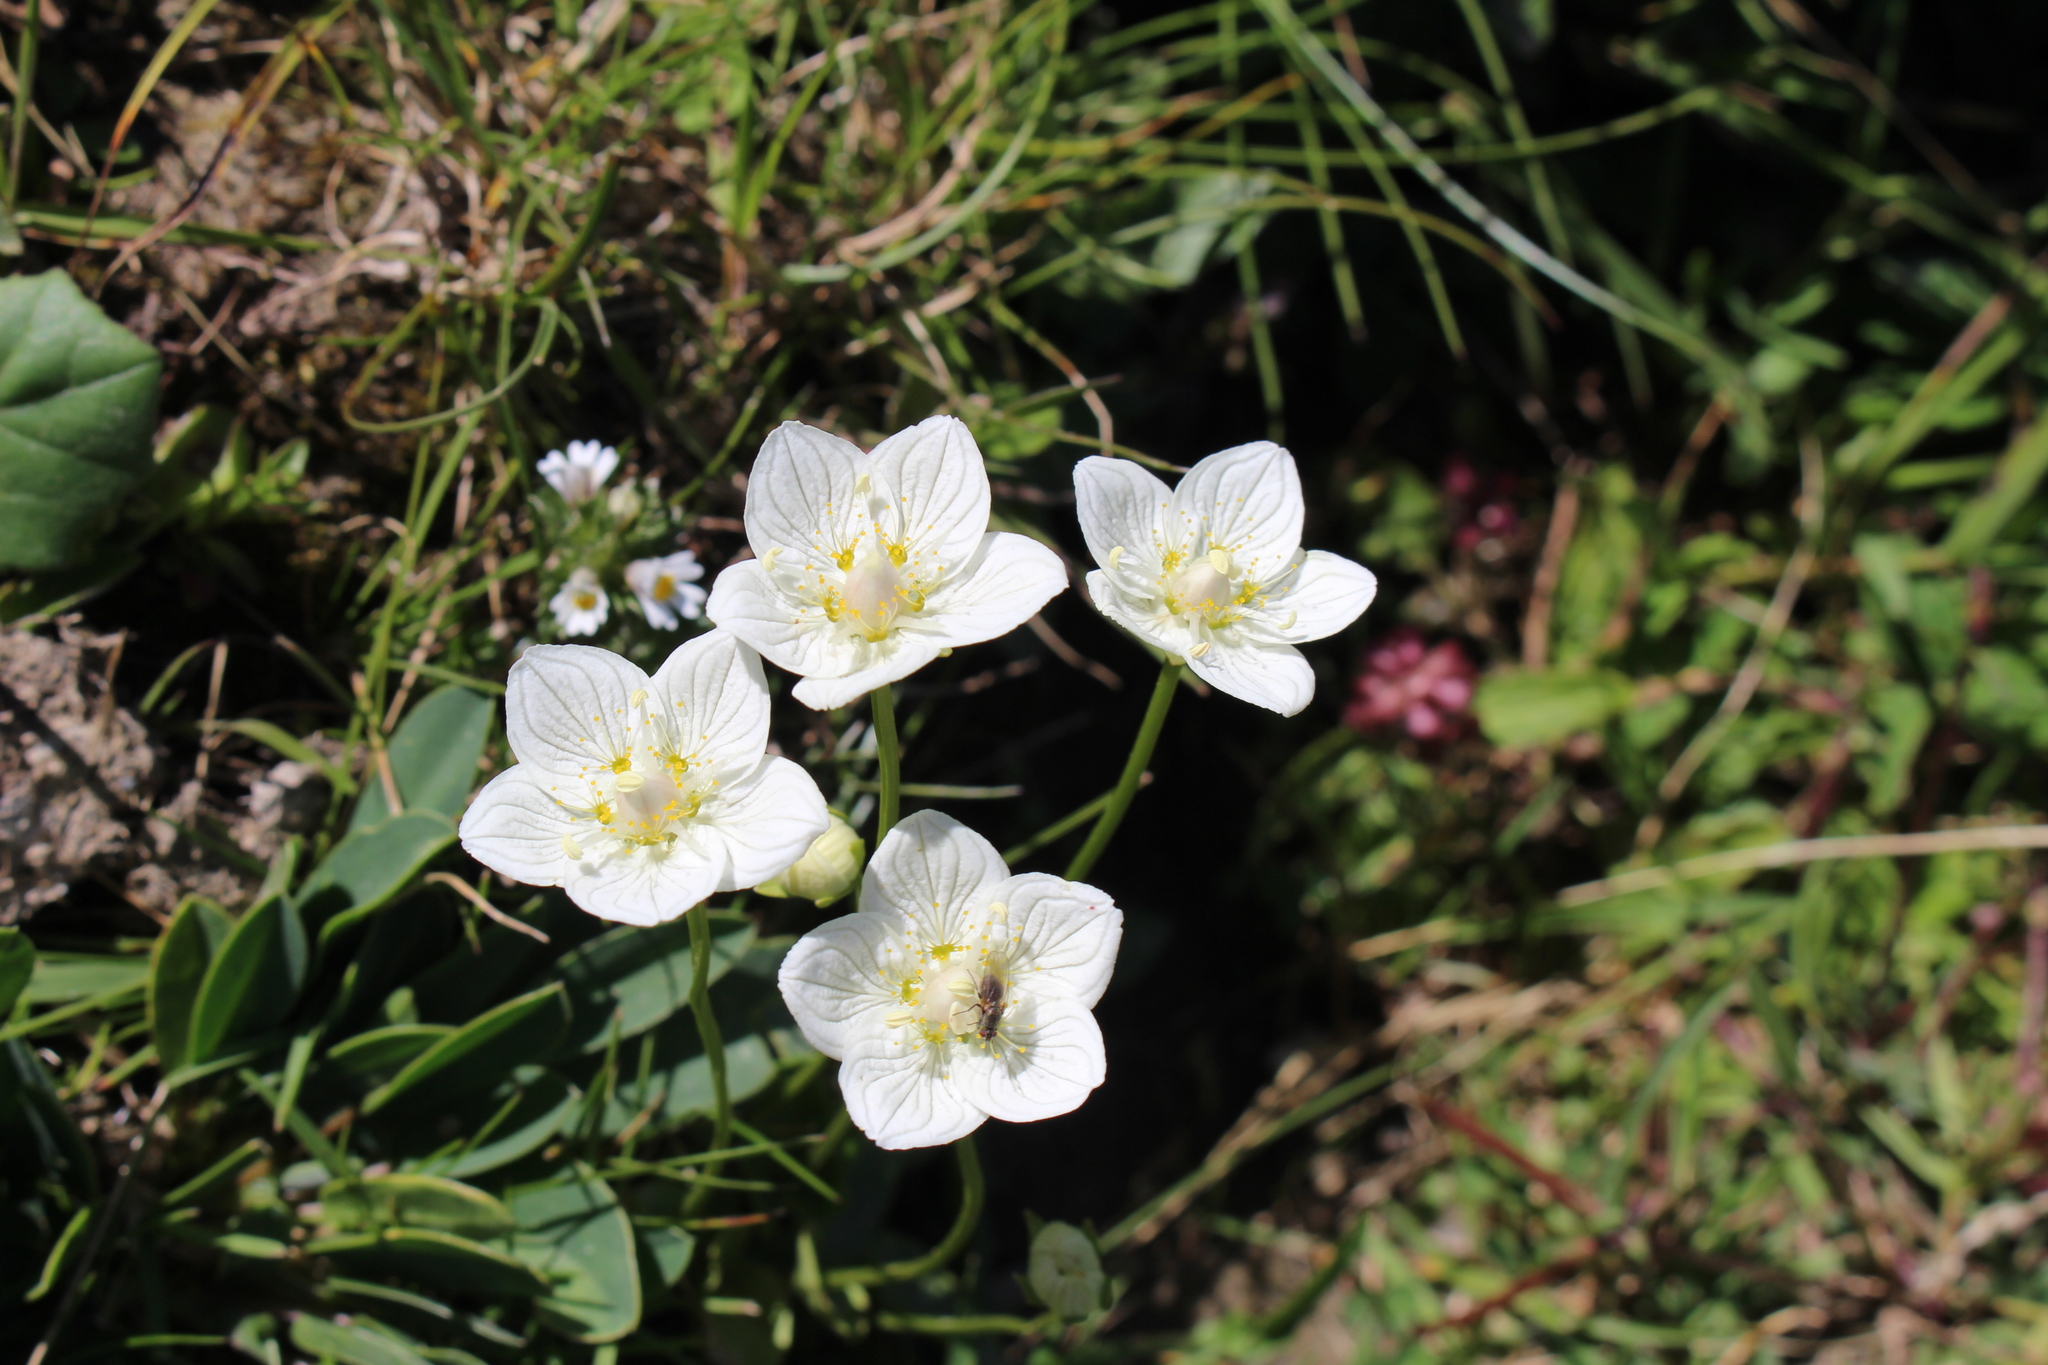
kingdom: Plantae
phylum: Tracheophyta
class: Magnoliopsida
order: Celastrales
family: Parnassiaceae
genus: Parnassia
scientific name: Parnassia palustris
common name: Grass-of-parnassus
